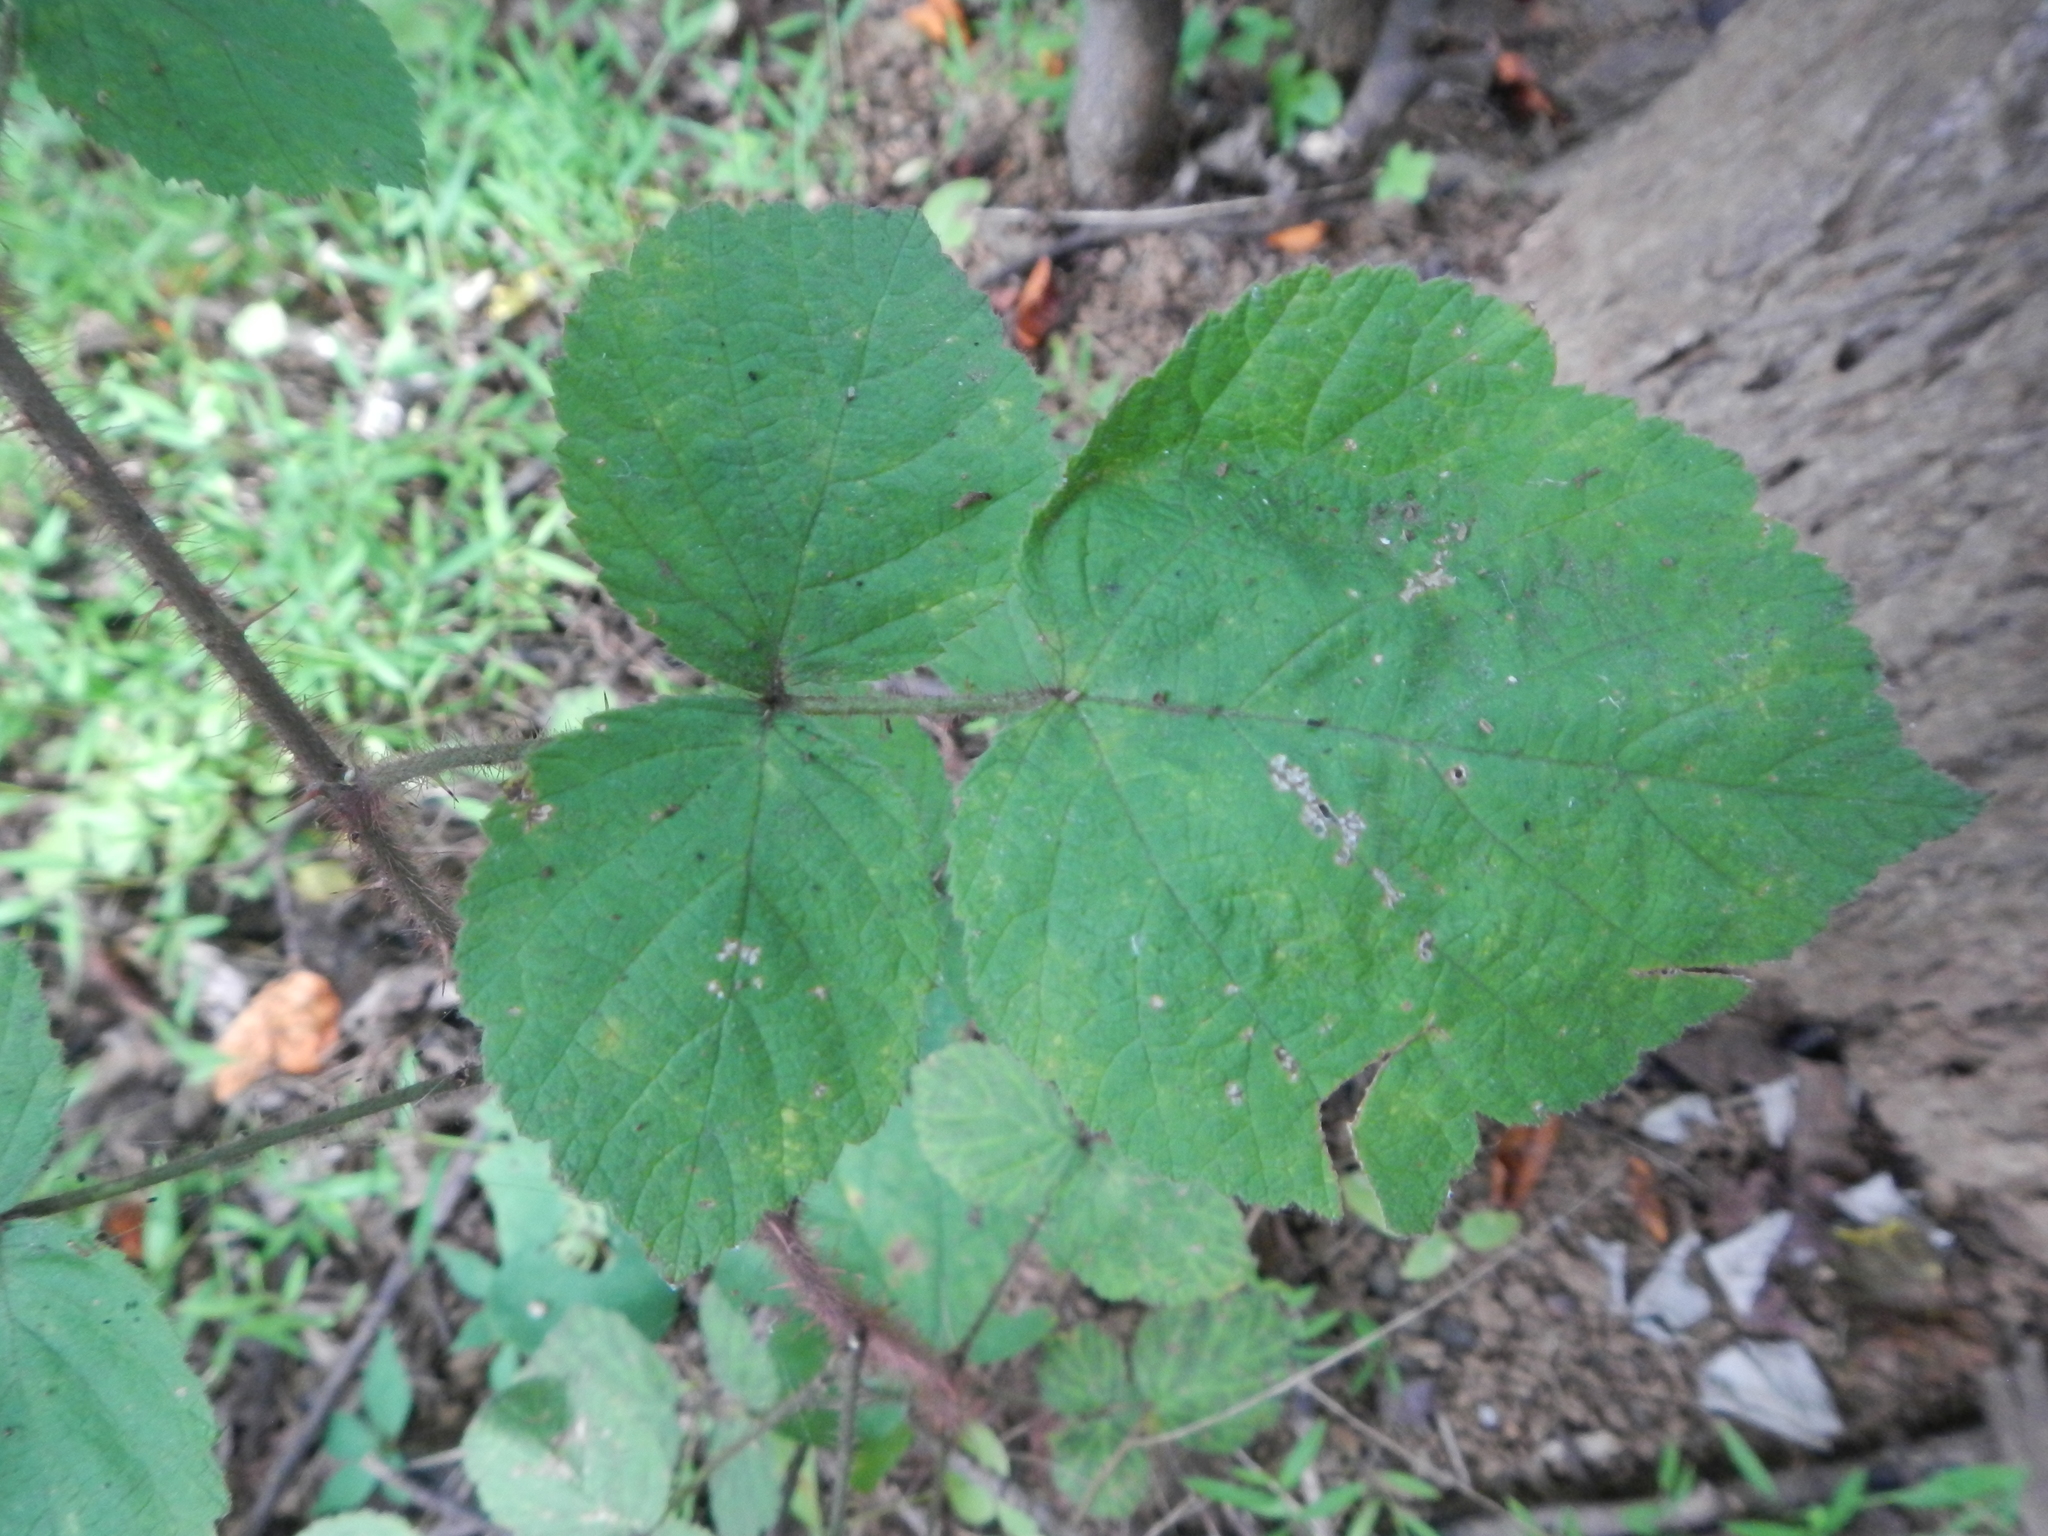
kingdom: Plantae
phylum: Tracheophyta
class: Magnoliopsida
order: Rosales
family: Rosaceae
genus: Rubus
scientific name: Rubus phoenicolasius
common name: Japanese wineberry
